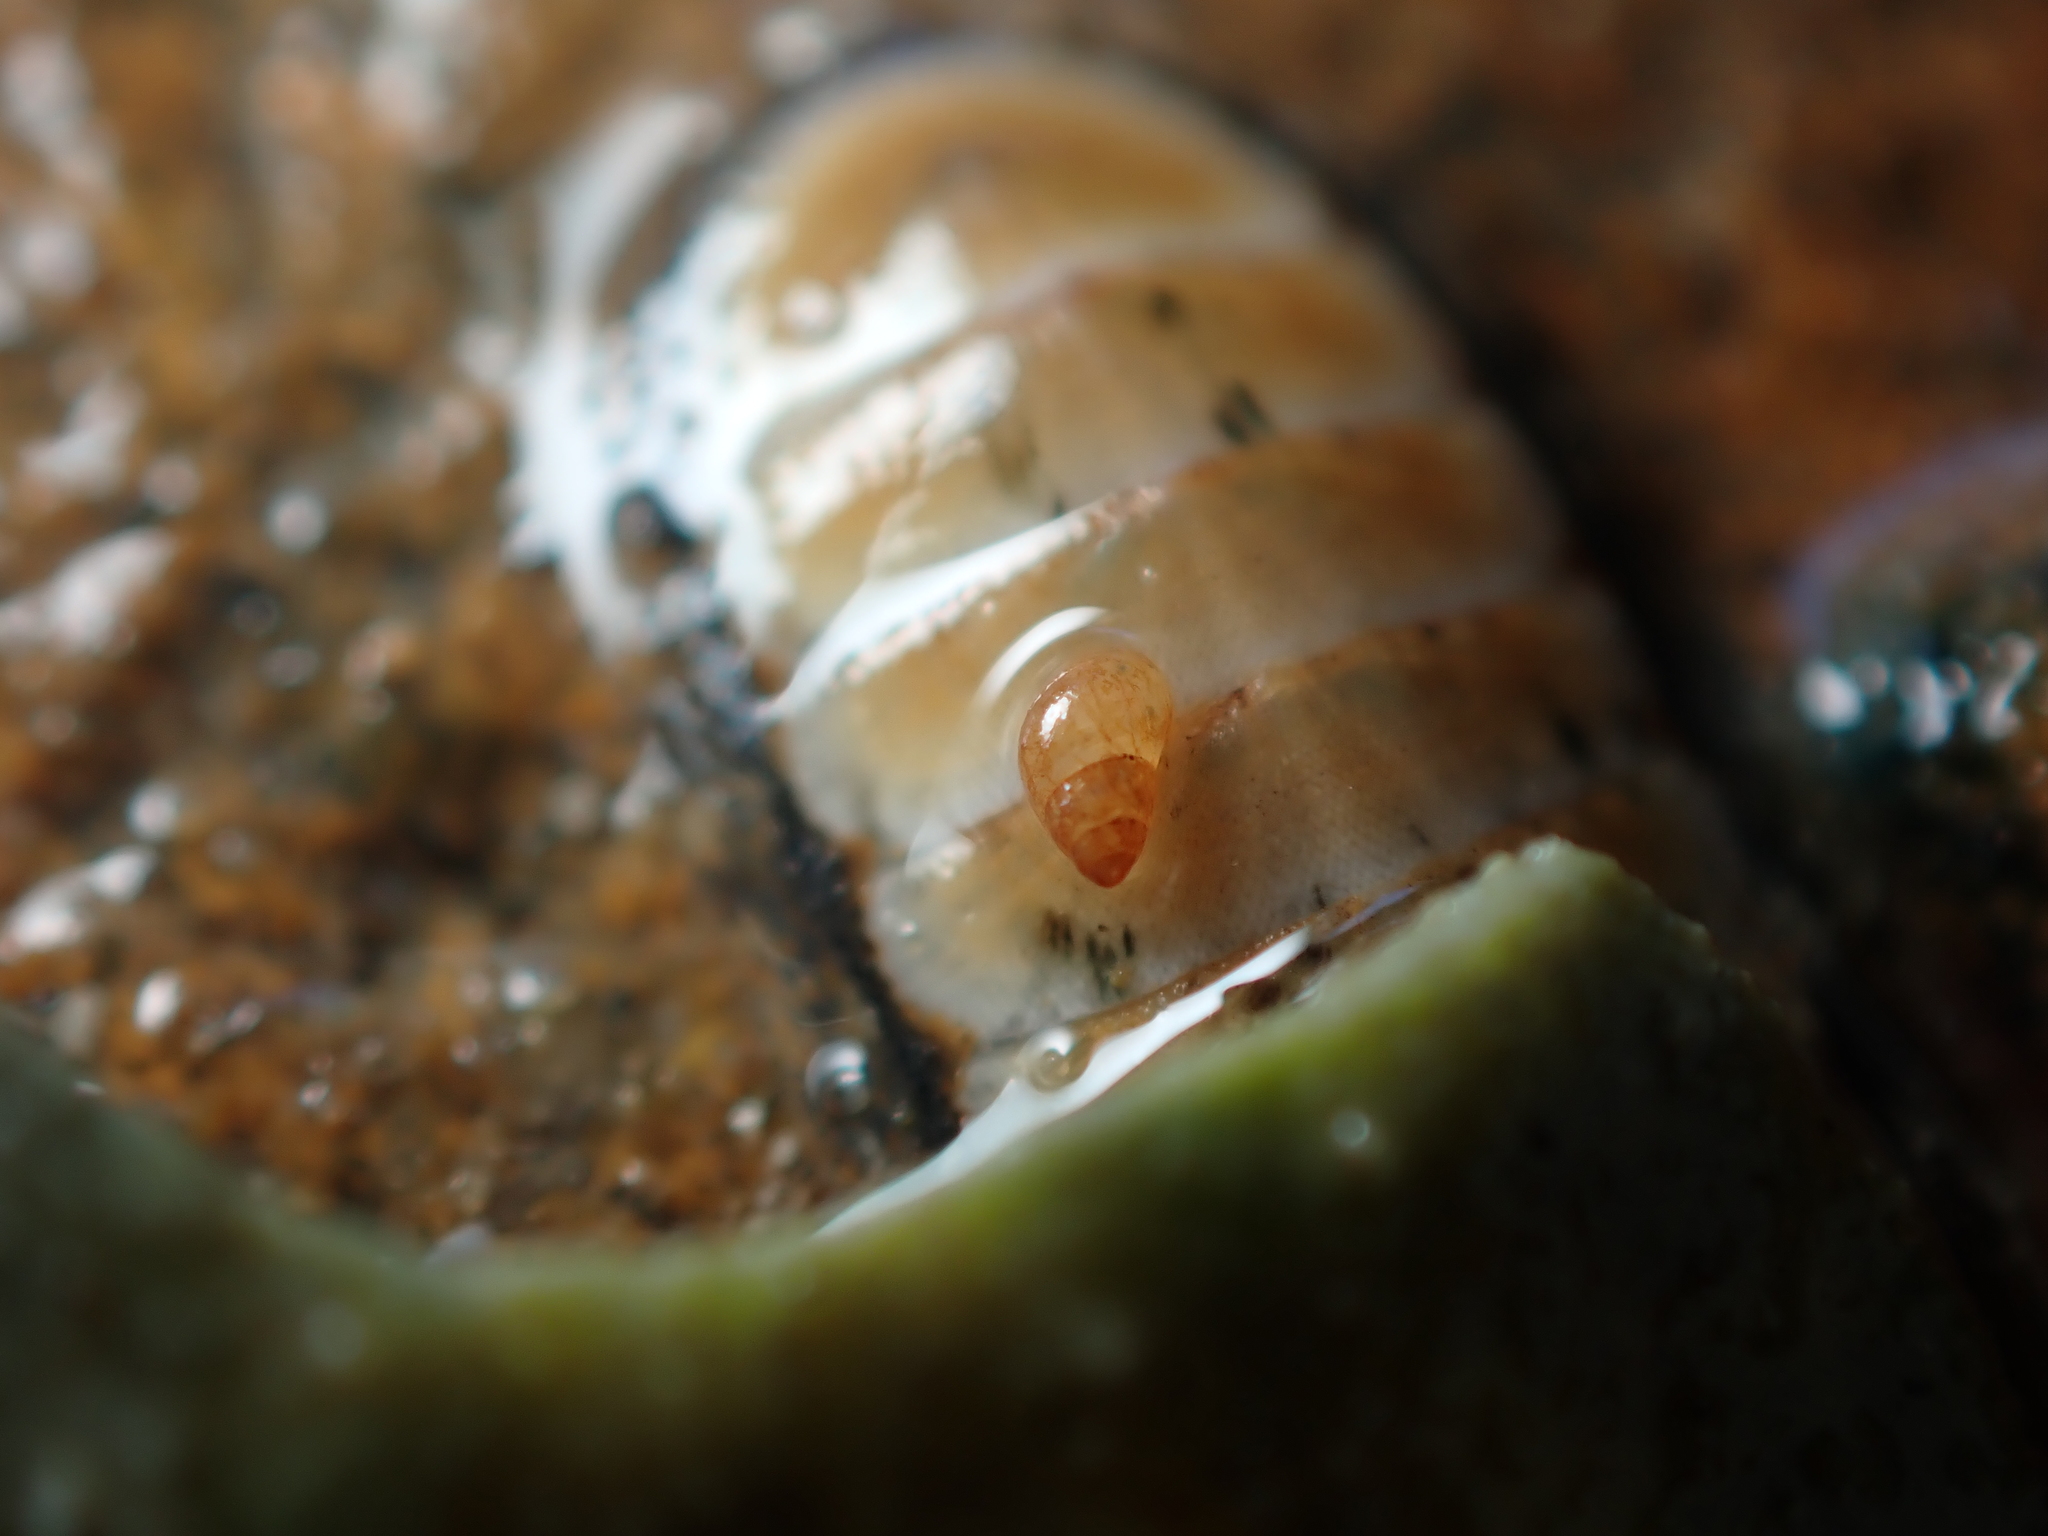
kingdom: Animalia
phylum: Mollusca
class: Polyplacophora
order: Chitonida
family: Ischnochitonidae
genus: Ischnochiton
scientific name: Ischnochiton maorianus
